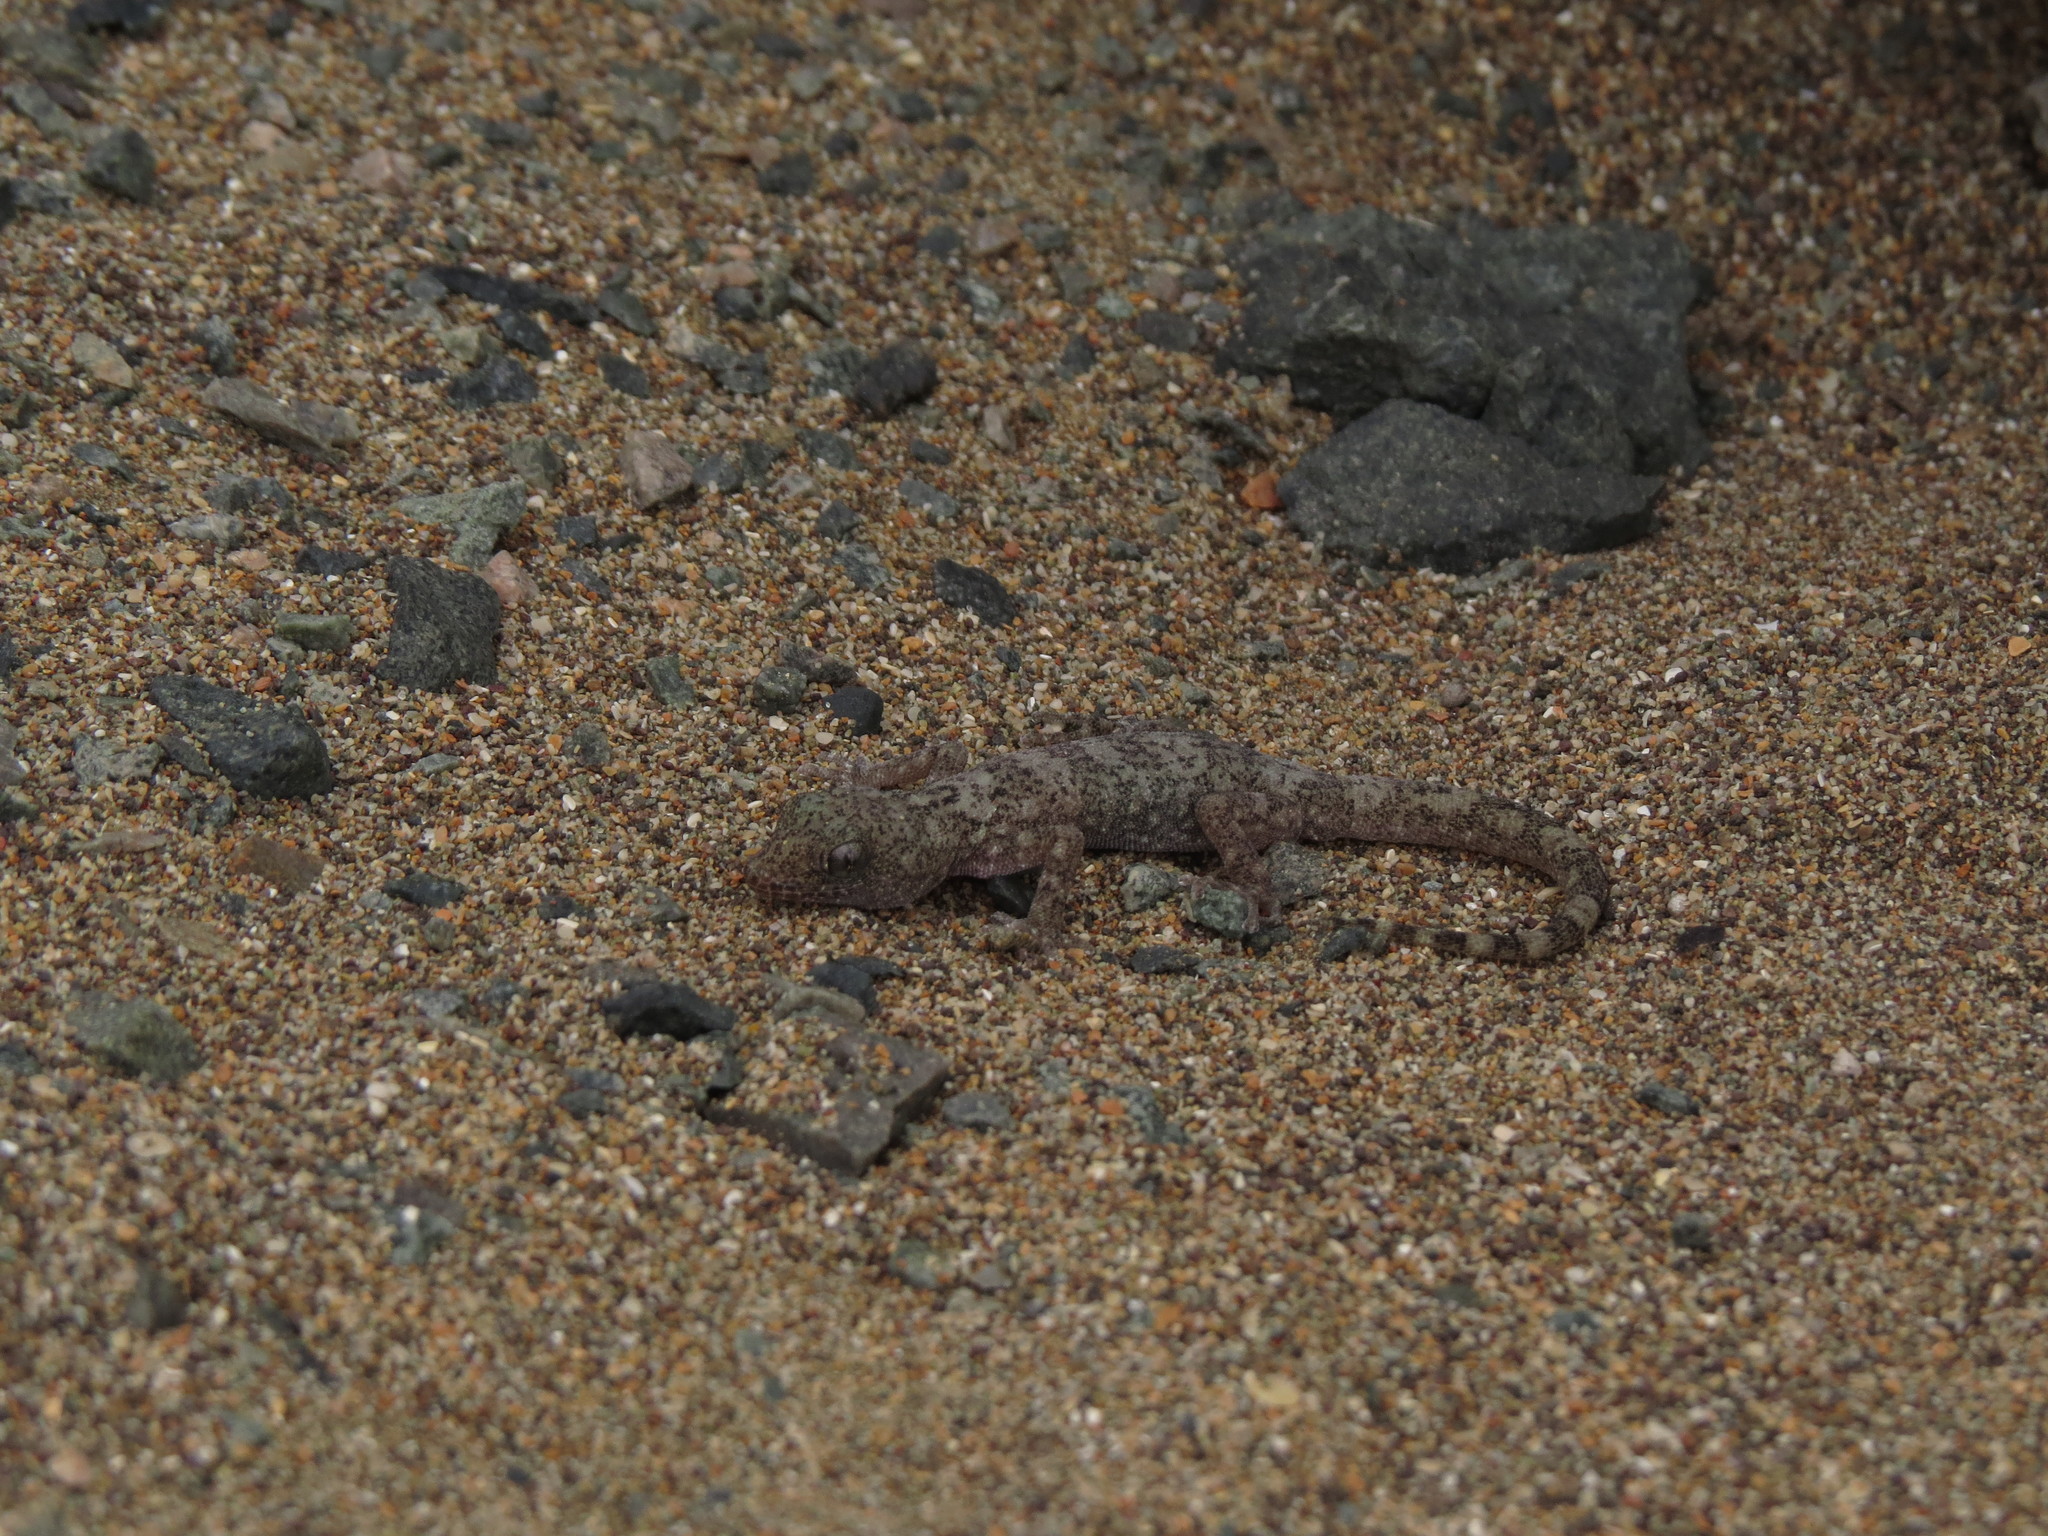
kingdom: Animalia
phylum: Chordata
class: Squamata
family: Phyllodactylidae
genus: Phyllodactylus
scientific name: Phyllodactylus gerrhopygus
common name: South american leaf-toed gecko
